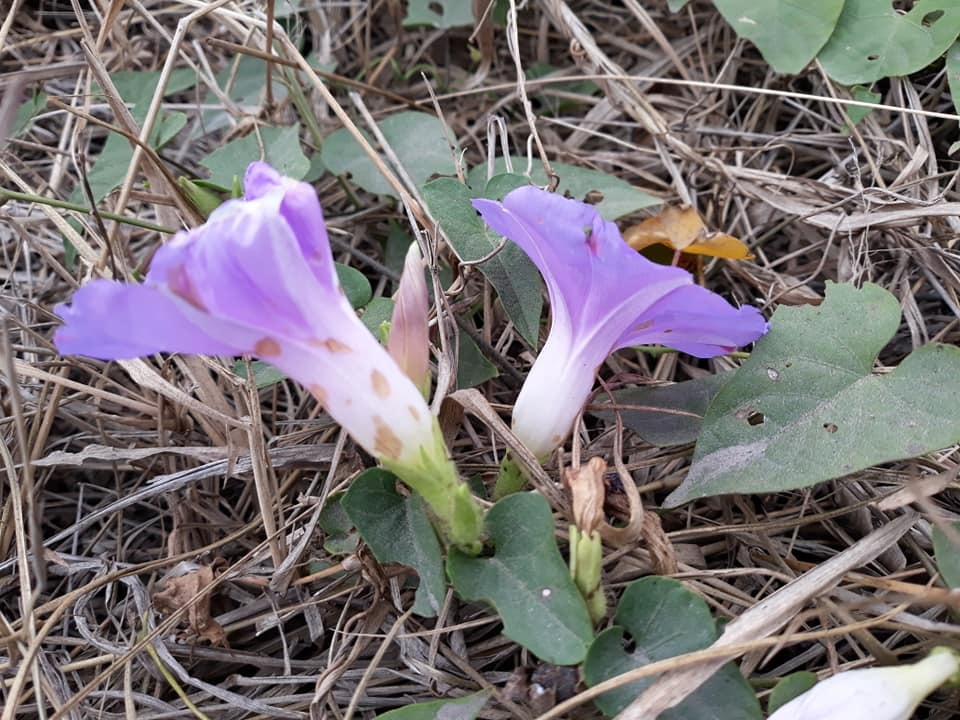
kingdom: Plantae
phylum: Tracheophyta
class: Magnoliopsida
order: Solanales
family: Convolvulaceae
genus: Ipomoea
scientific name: Ipomoea mitchelliae
